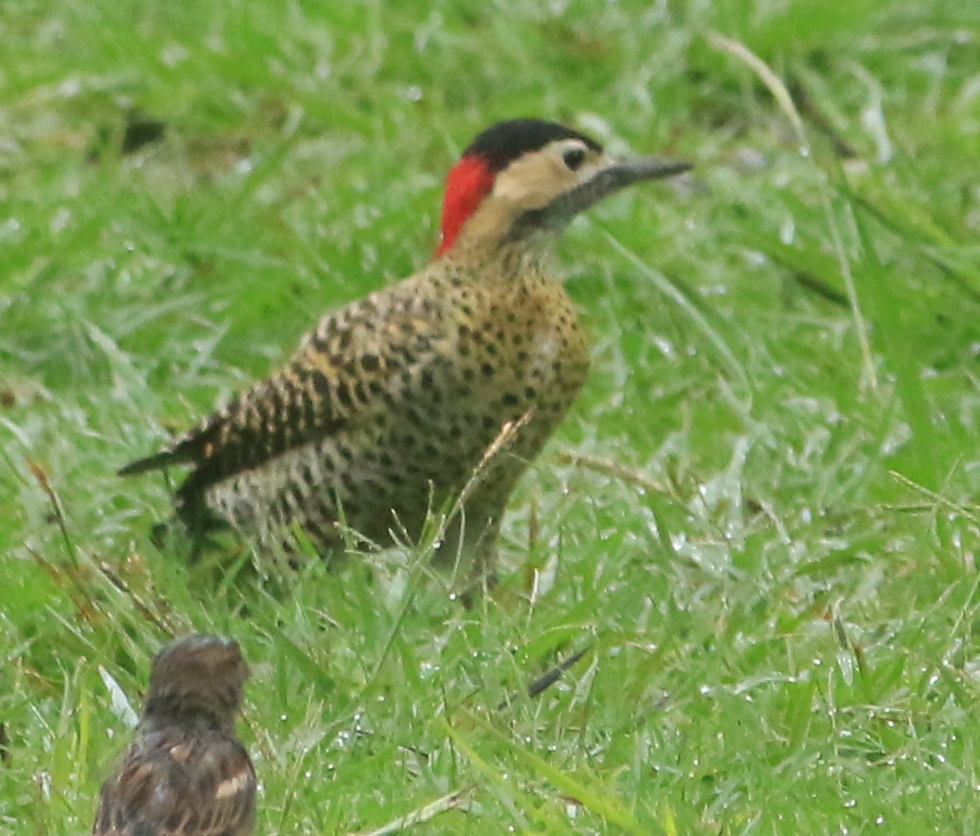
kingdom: Animalia
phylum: Chordata
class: Aves
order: Piciformes
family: Picidae
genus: Colaptes
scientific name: Colaptes melanochloros
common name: Green-barred woodpecker
